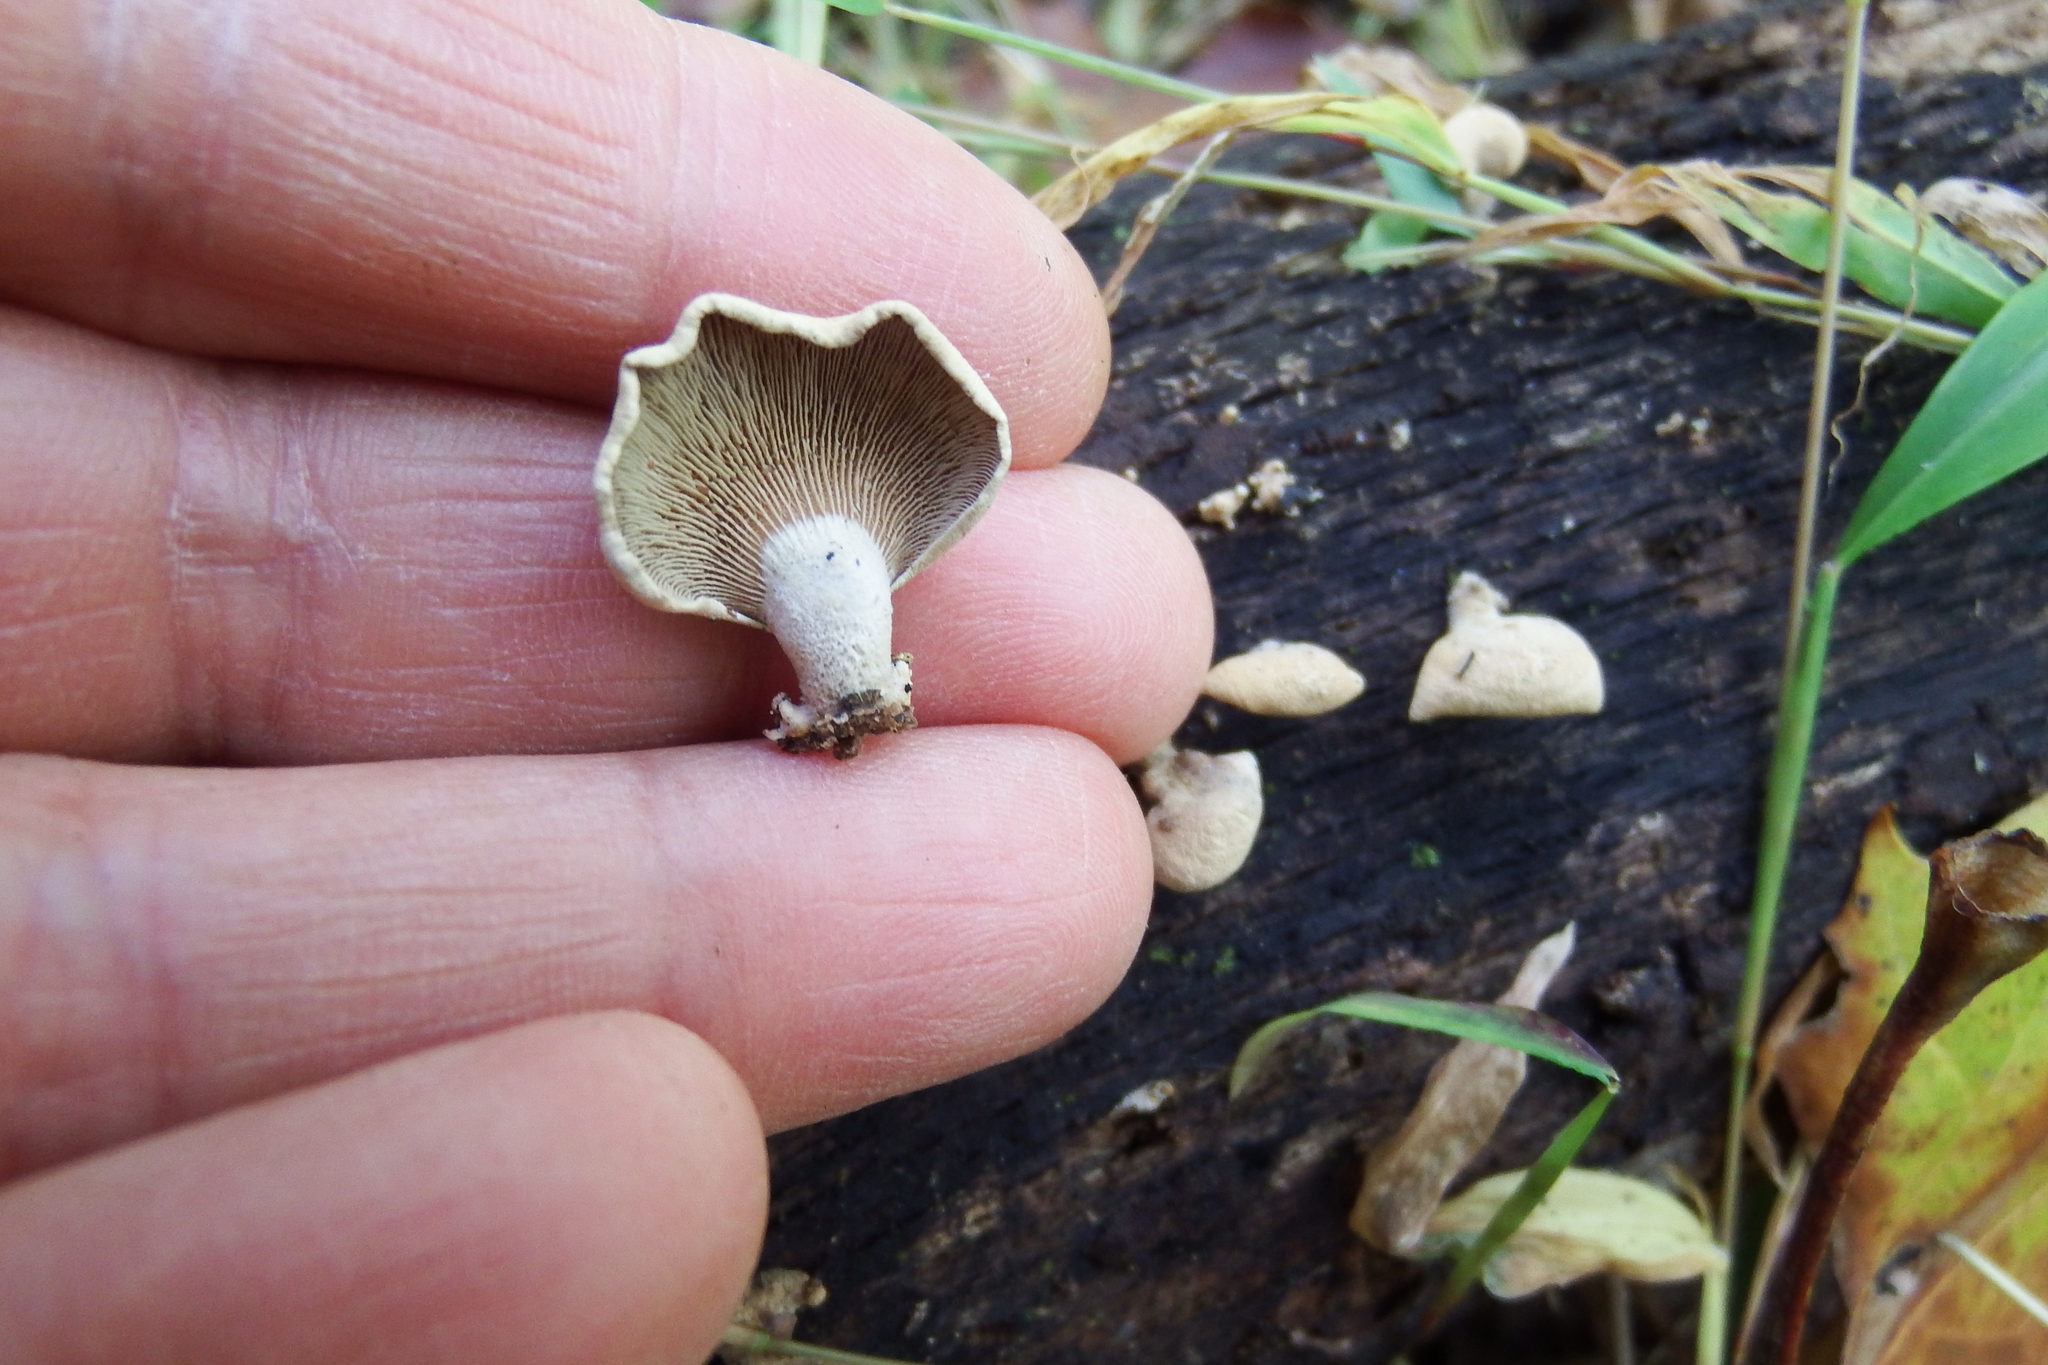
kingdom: Fungi
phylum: Basidiomycota
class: Agaricomycetes
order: Agaricales
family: Mycenaceae
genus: Panellus
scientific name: Panellus stipticus
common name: Bitter oysterling
